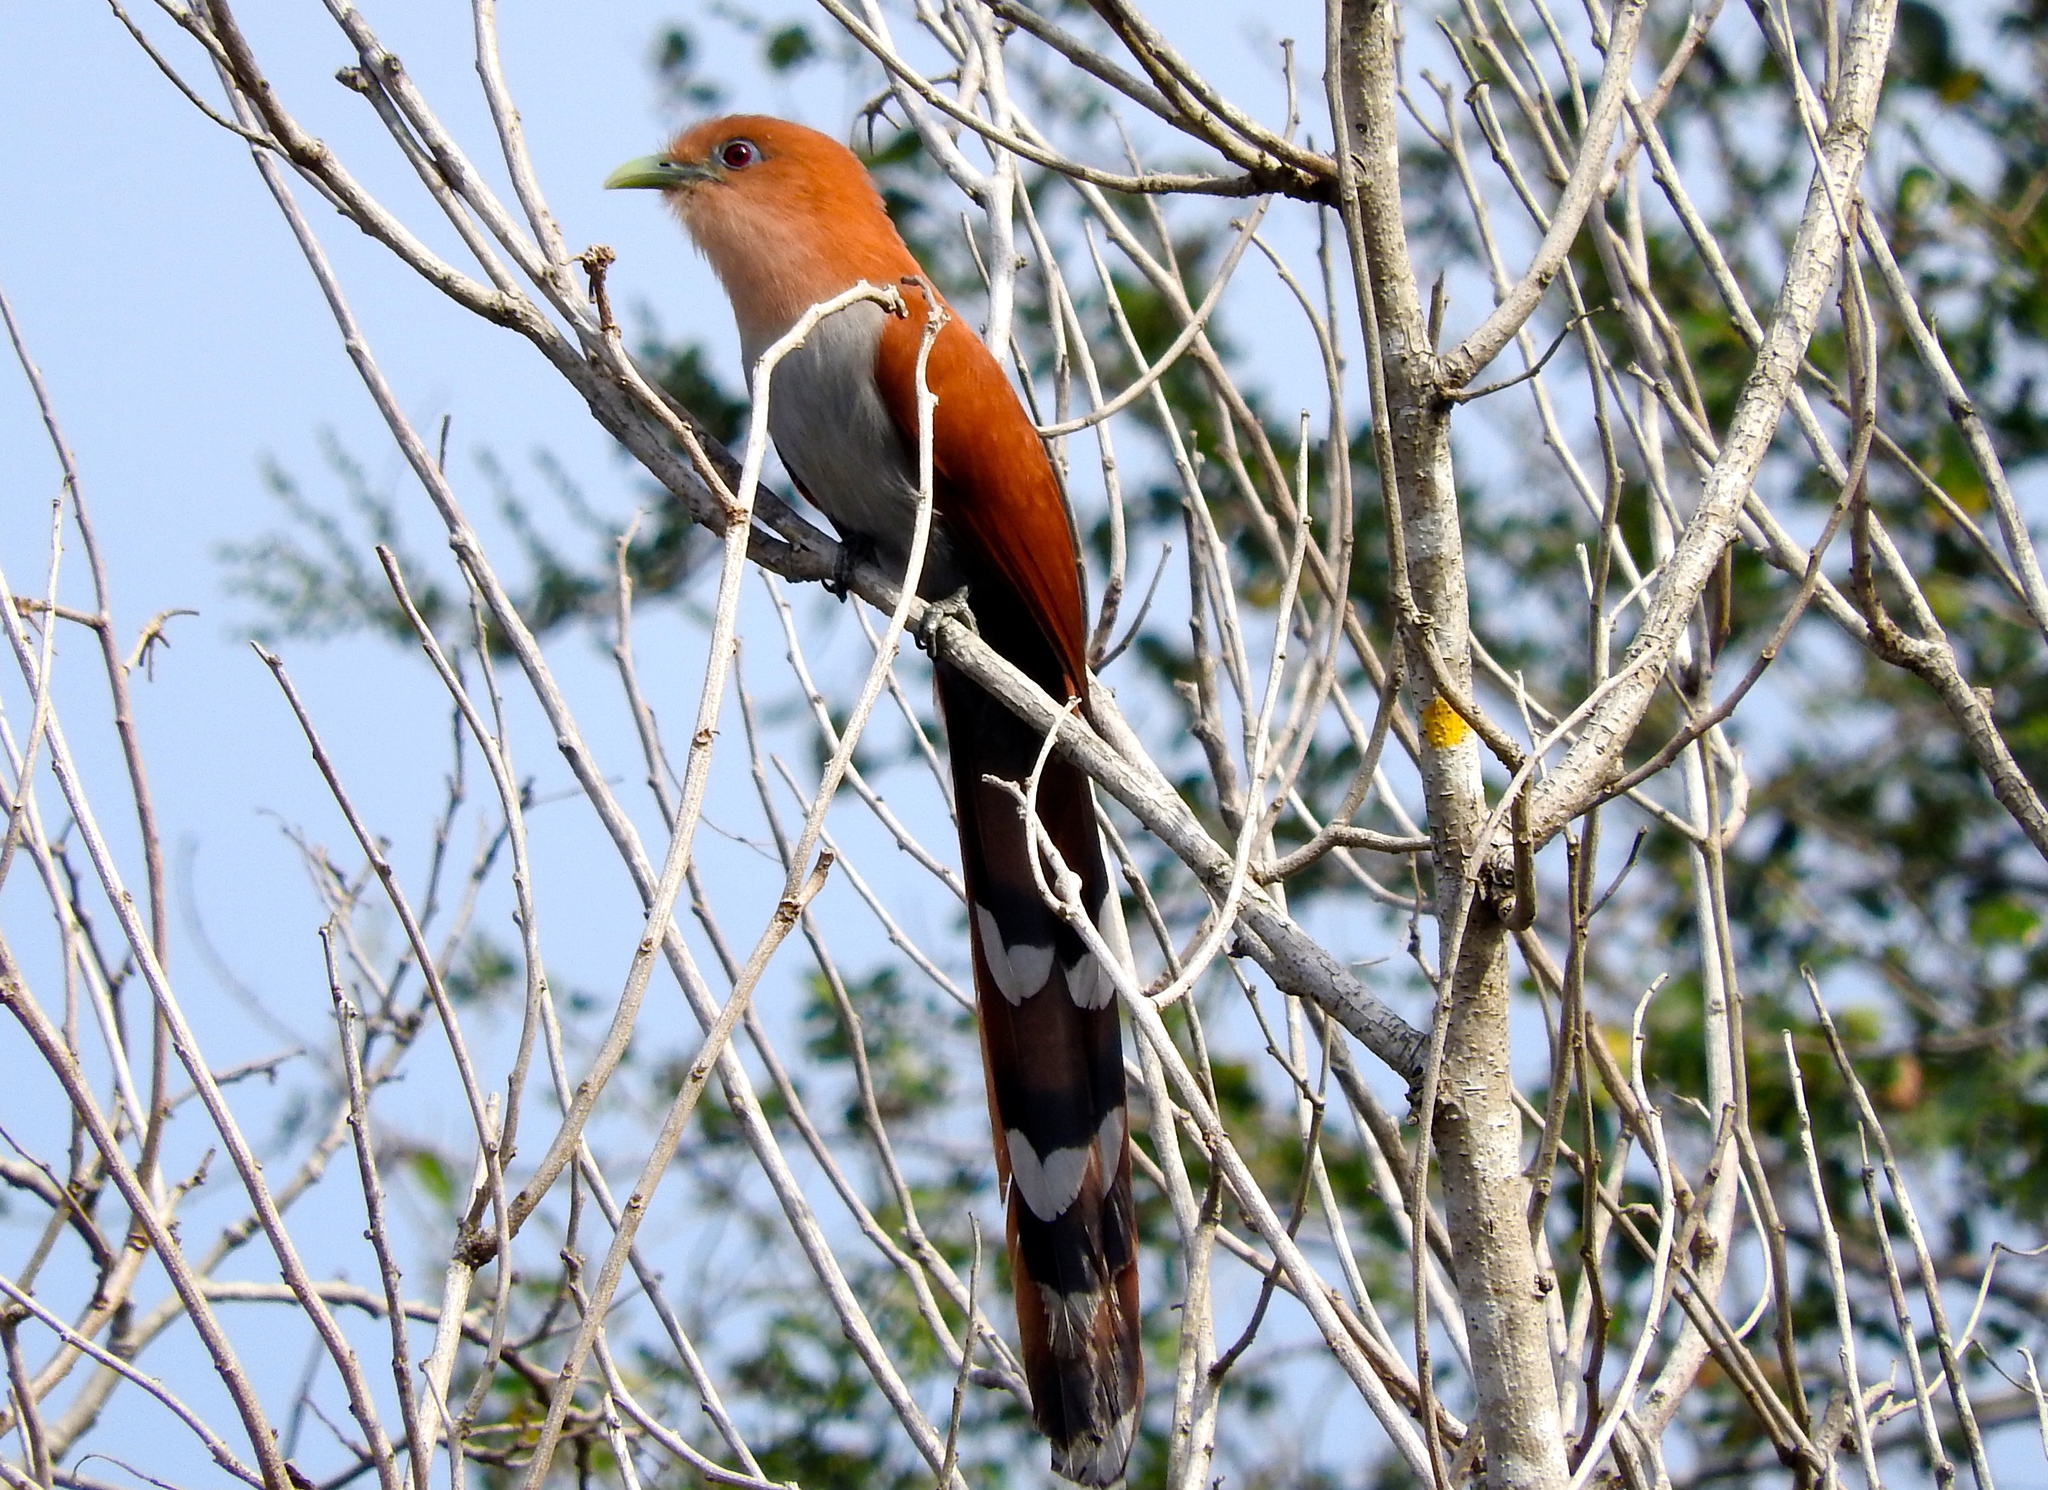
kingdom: Animalia
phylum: Chordata
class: Aves
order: Cuculiformes
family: Cuculidae
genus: Piaya
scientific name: Piaya cayana
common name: Squirrel cuckoo
